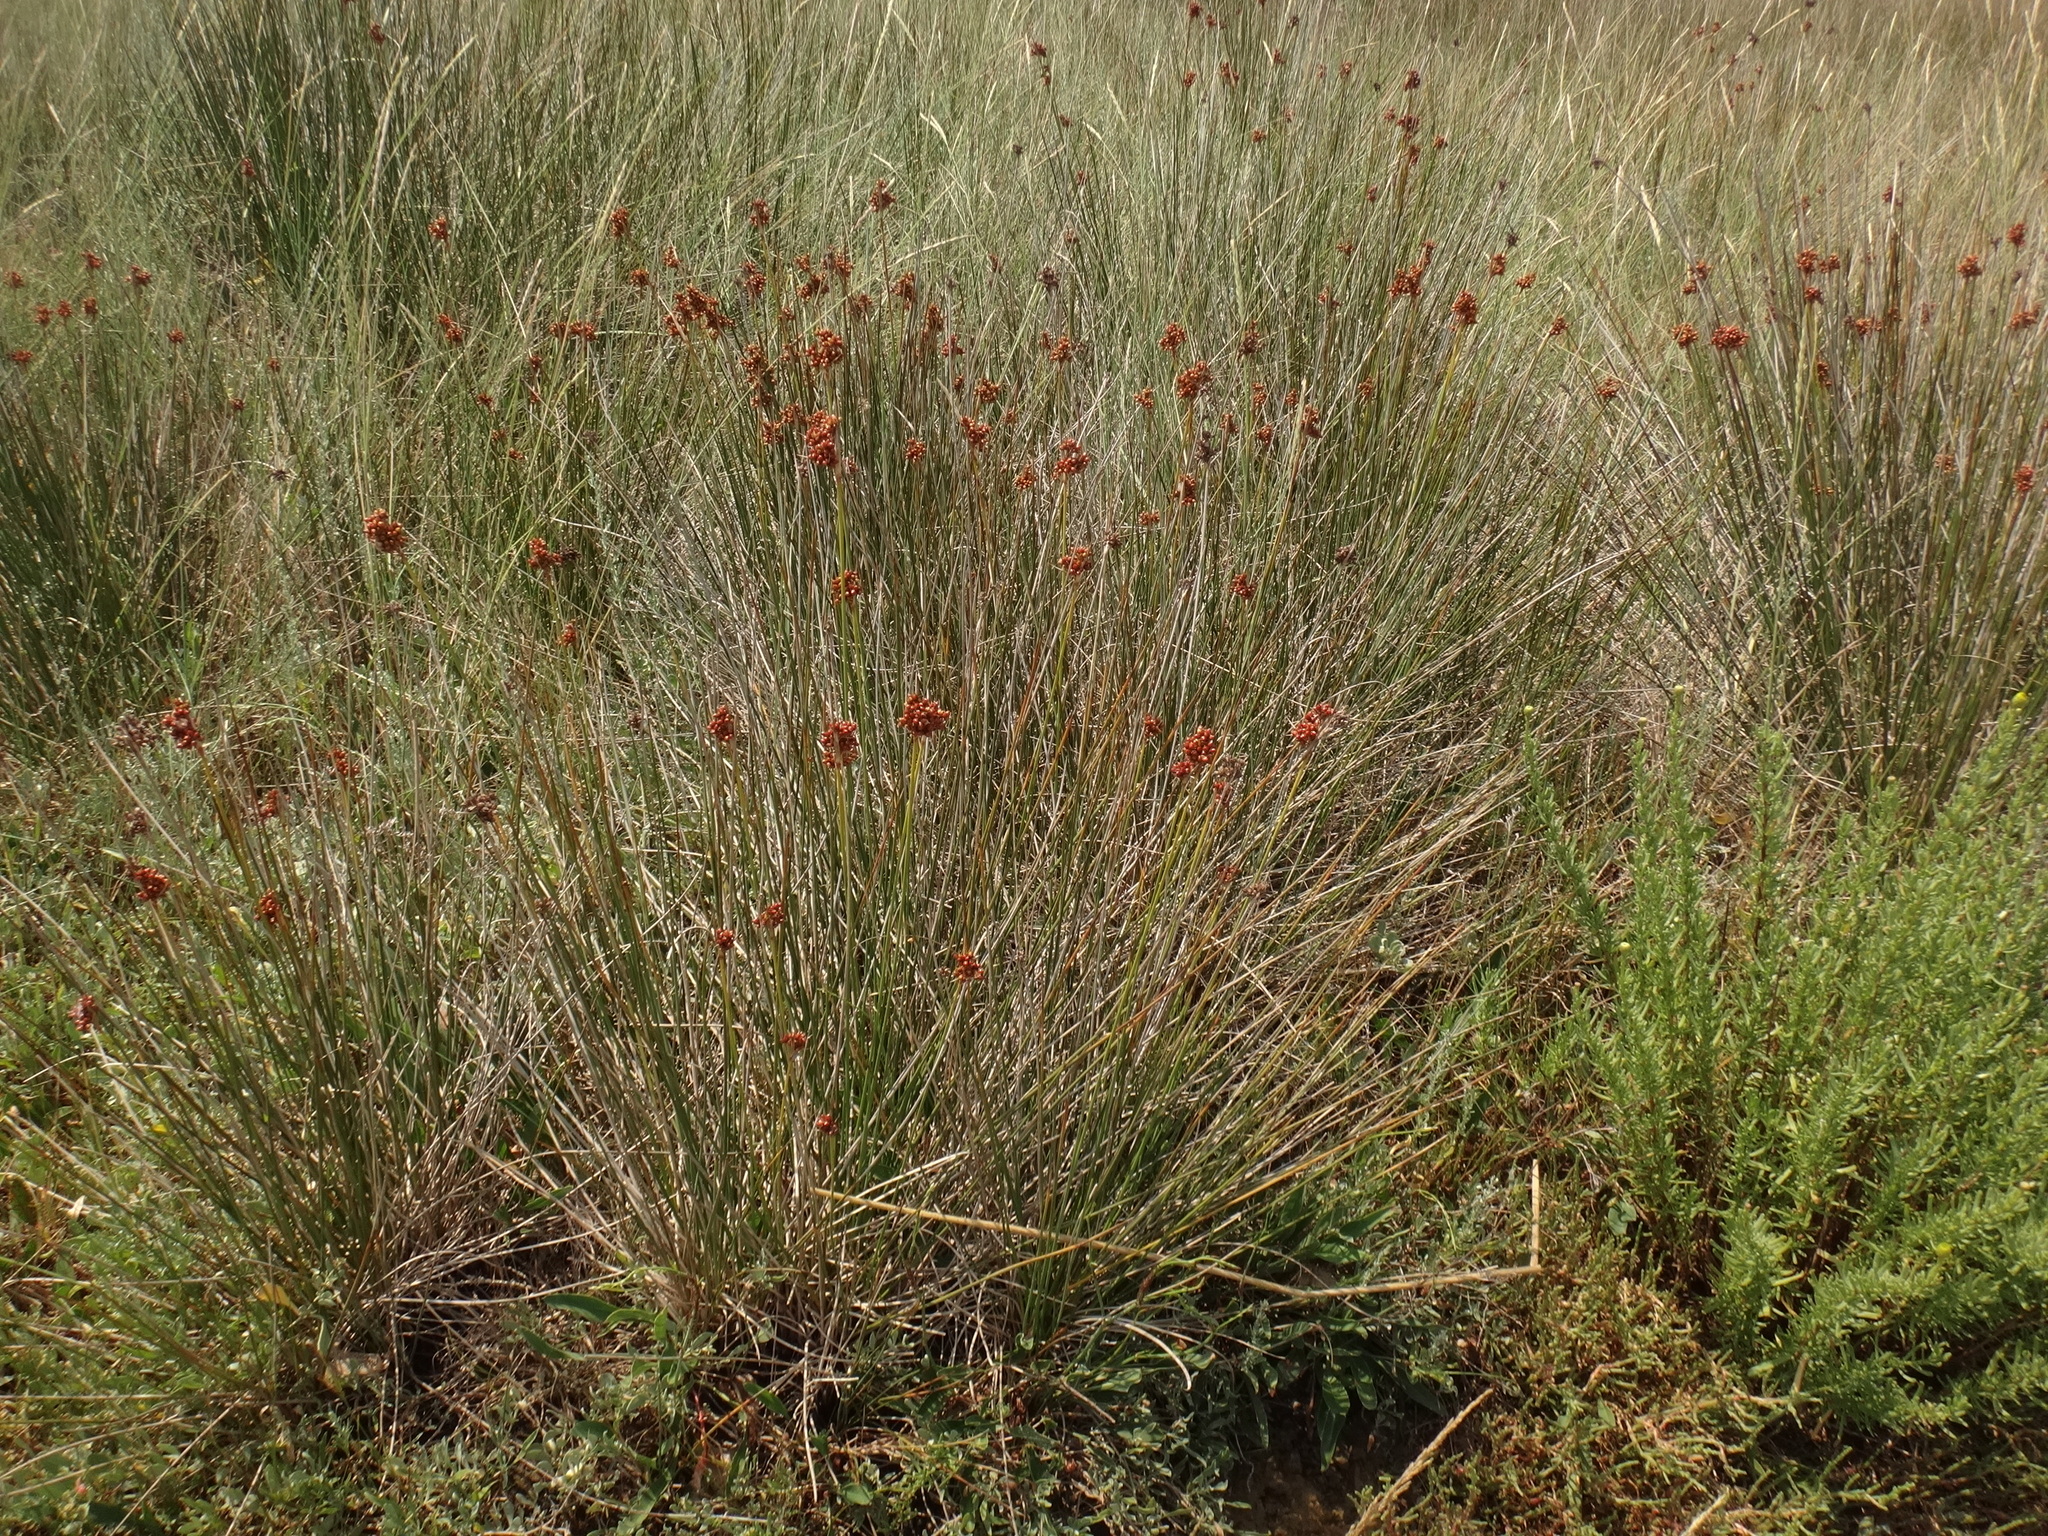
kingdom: Plantae
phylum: Tracheophyta
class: Liliopsida
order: Poales
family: Juncaceae
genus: Juncus
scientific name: Juncus acutus
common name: Sharp rush
